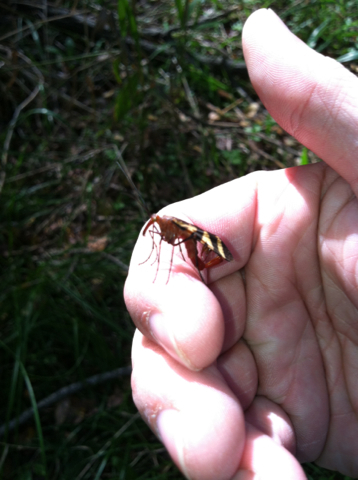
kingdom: Animalia
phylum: Arthropoda
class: Insecta
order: Mecoptera
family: Panorpidae
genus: Panorpa
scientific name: Panorpa nuptialis
